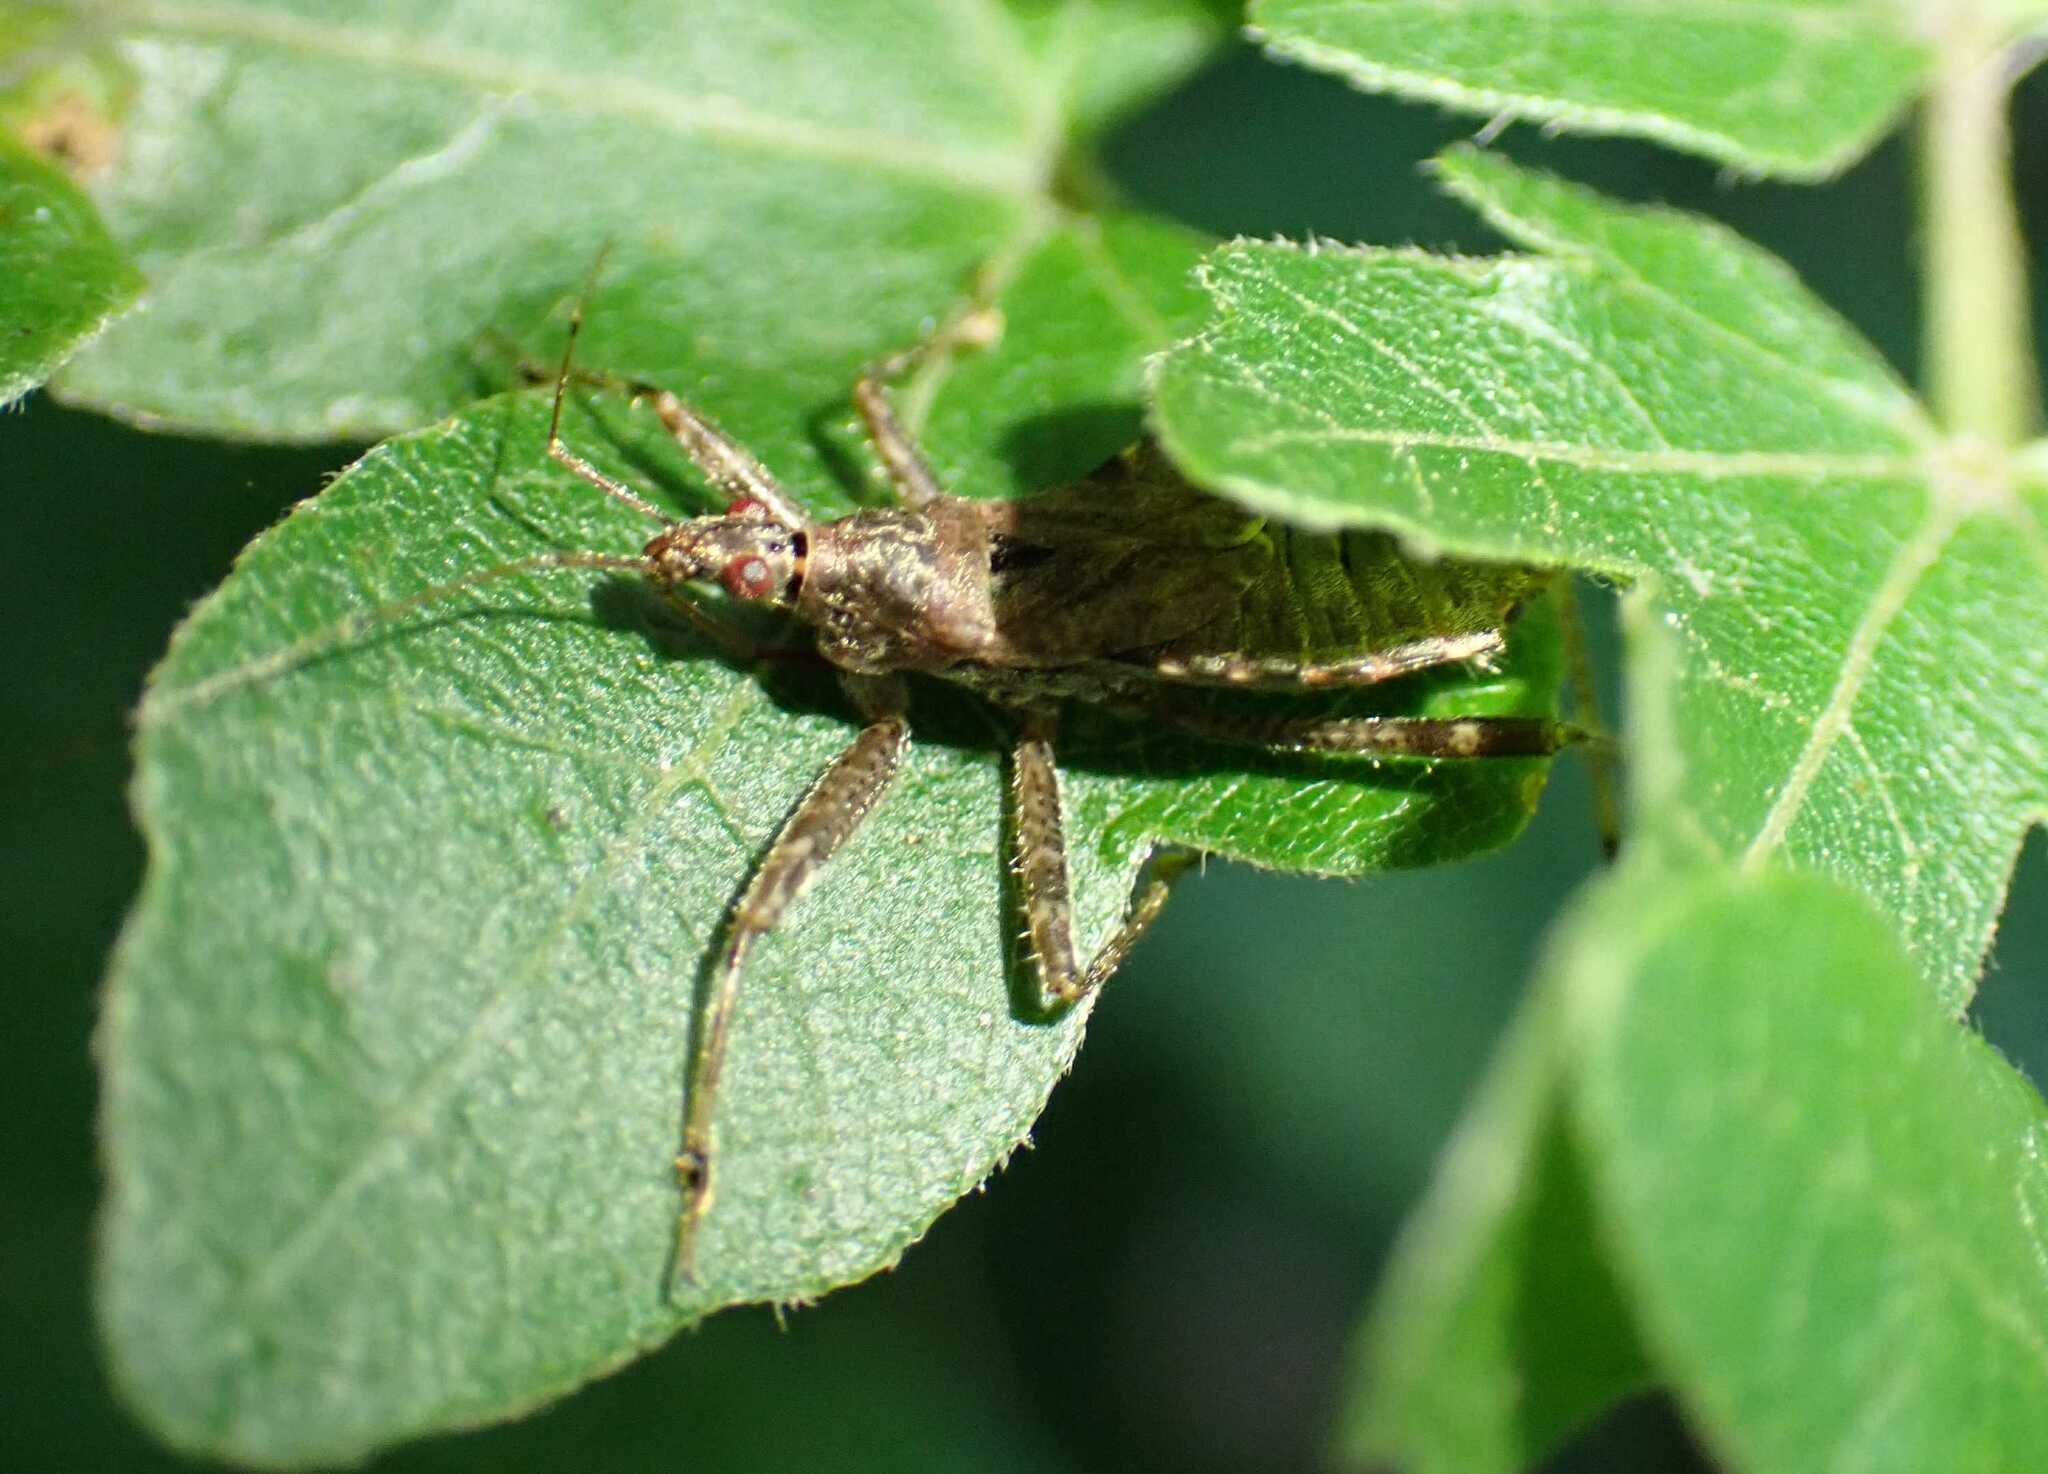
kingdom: Animalia
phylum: Arthropoda
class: Insecta
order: Hemiptera
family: Nabidae
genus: Himacerus
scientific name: Himacerus apterus
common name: Tree damsel bug
